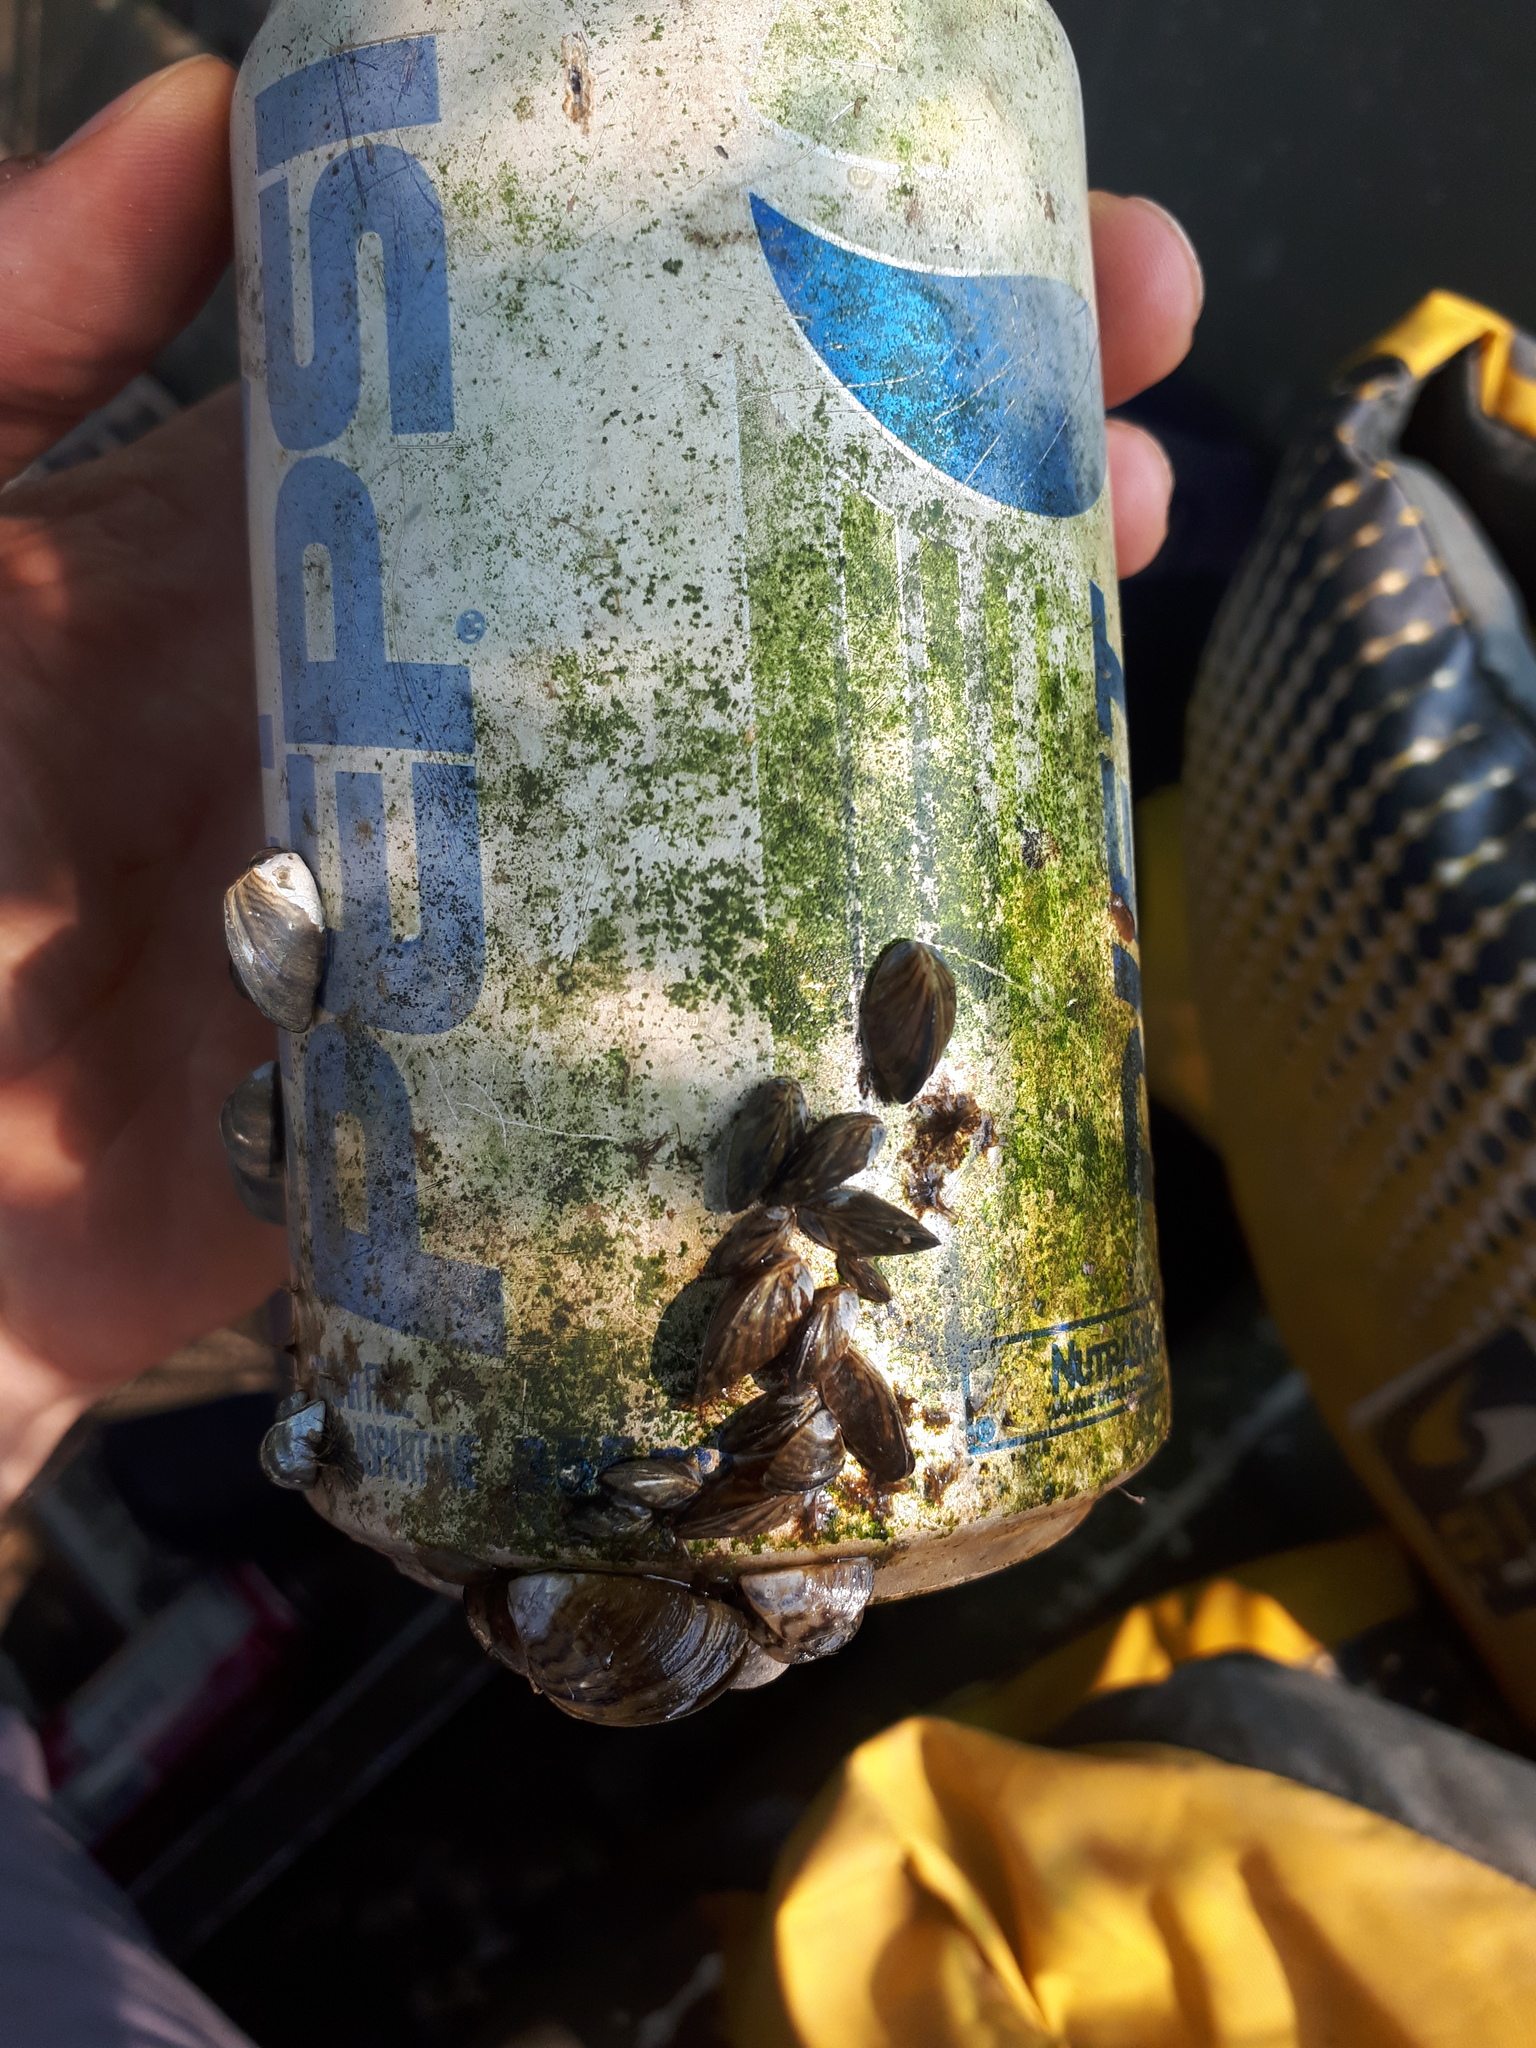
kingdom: Animalia
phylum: Mollusca
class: Bivalvia
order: Myida
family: Dreissenidae
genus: Dreissena
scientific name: Dreissena polymorpha
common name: Zebra mussel
